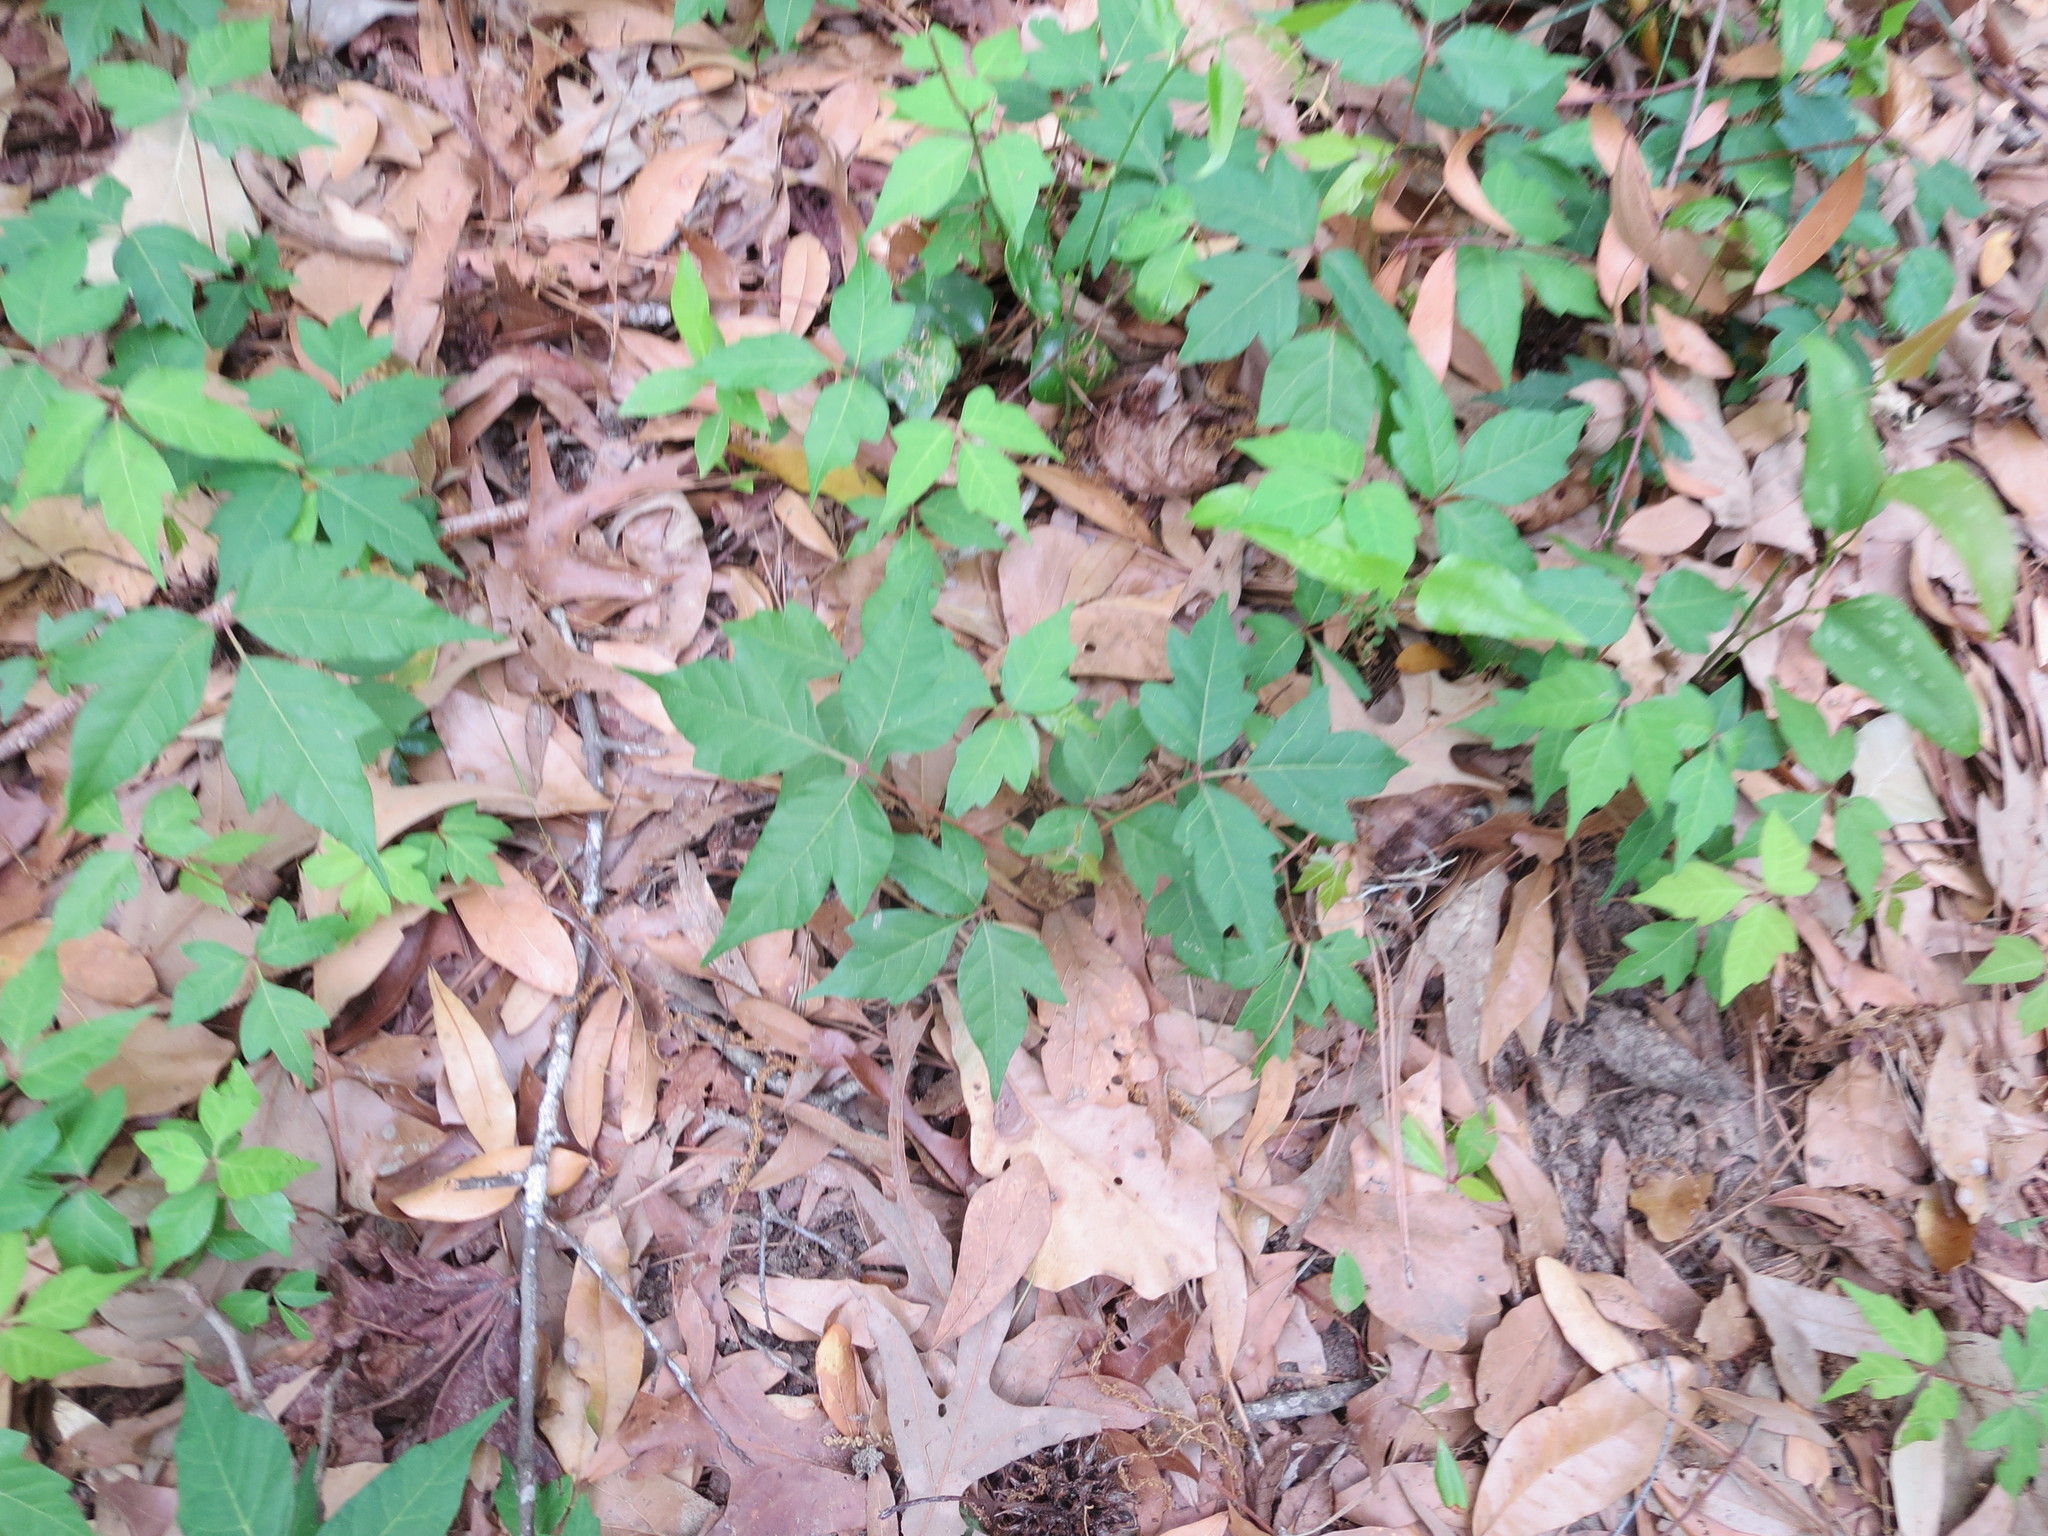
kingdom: Plantae
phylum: Tracheophyta
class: Magnoliopsida
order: Sapindales
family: Anacardiaceae
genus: Toxicodendron
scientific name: Toxicodendron radicans
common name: Poison ivy
